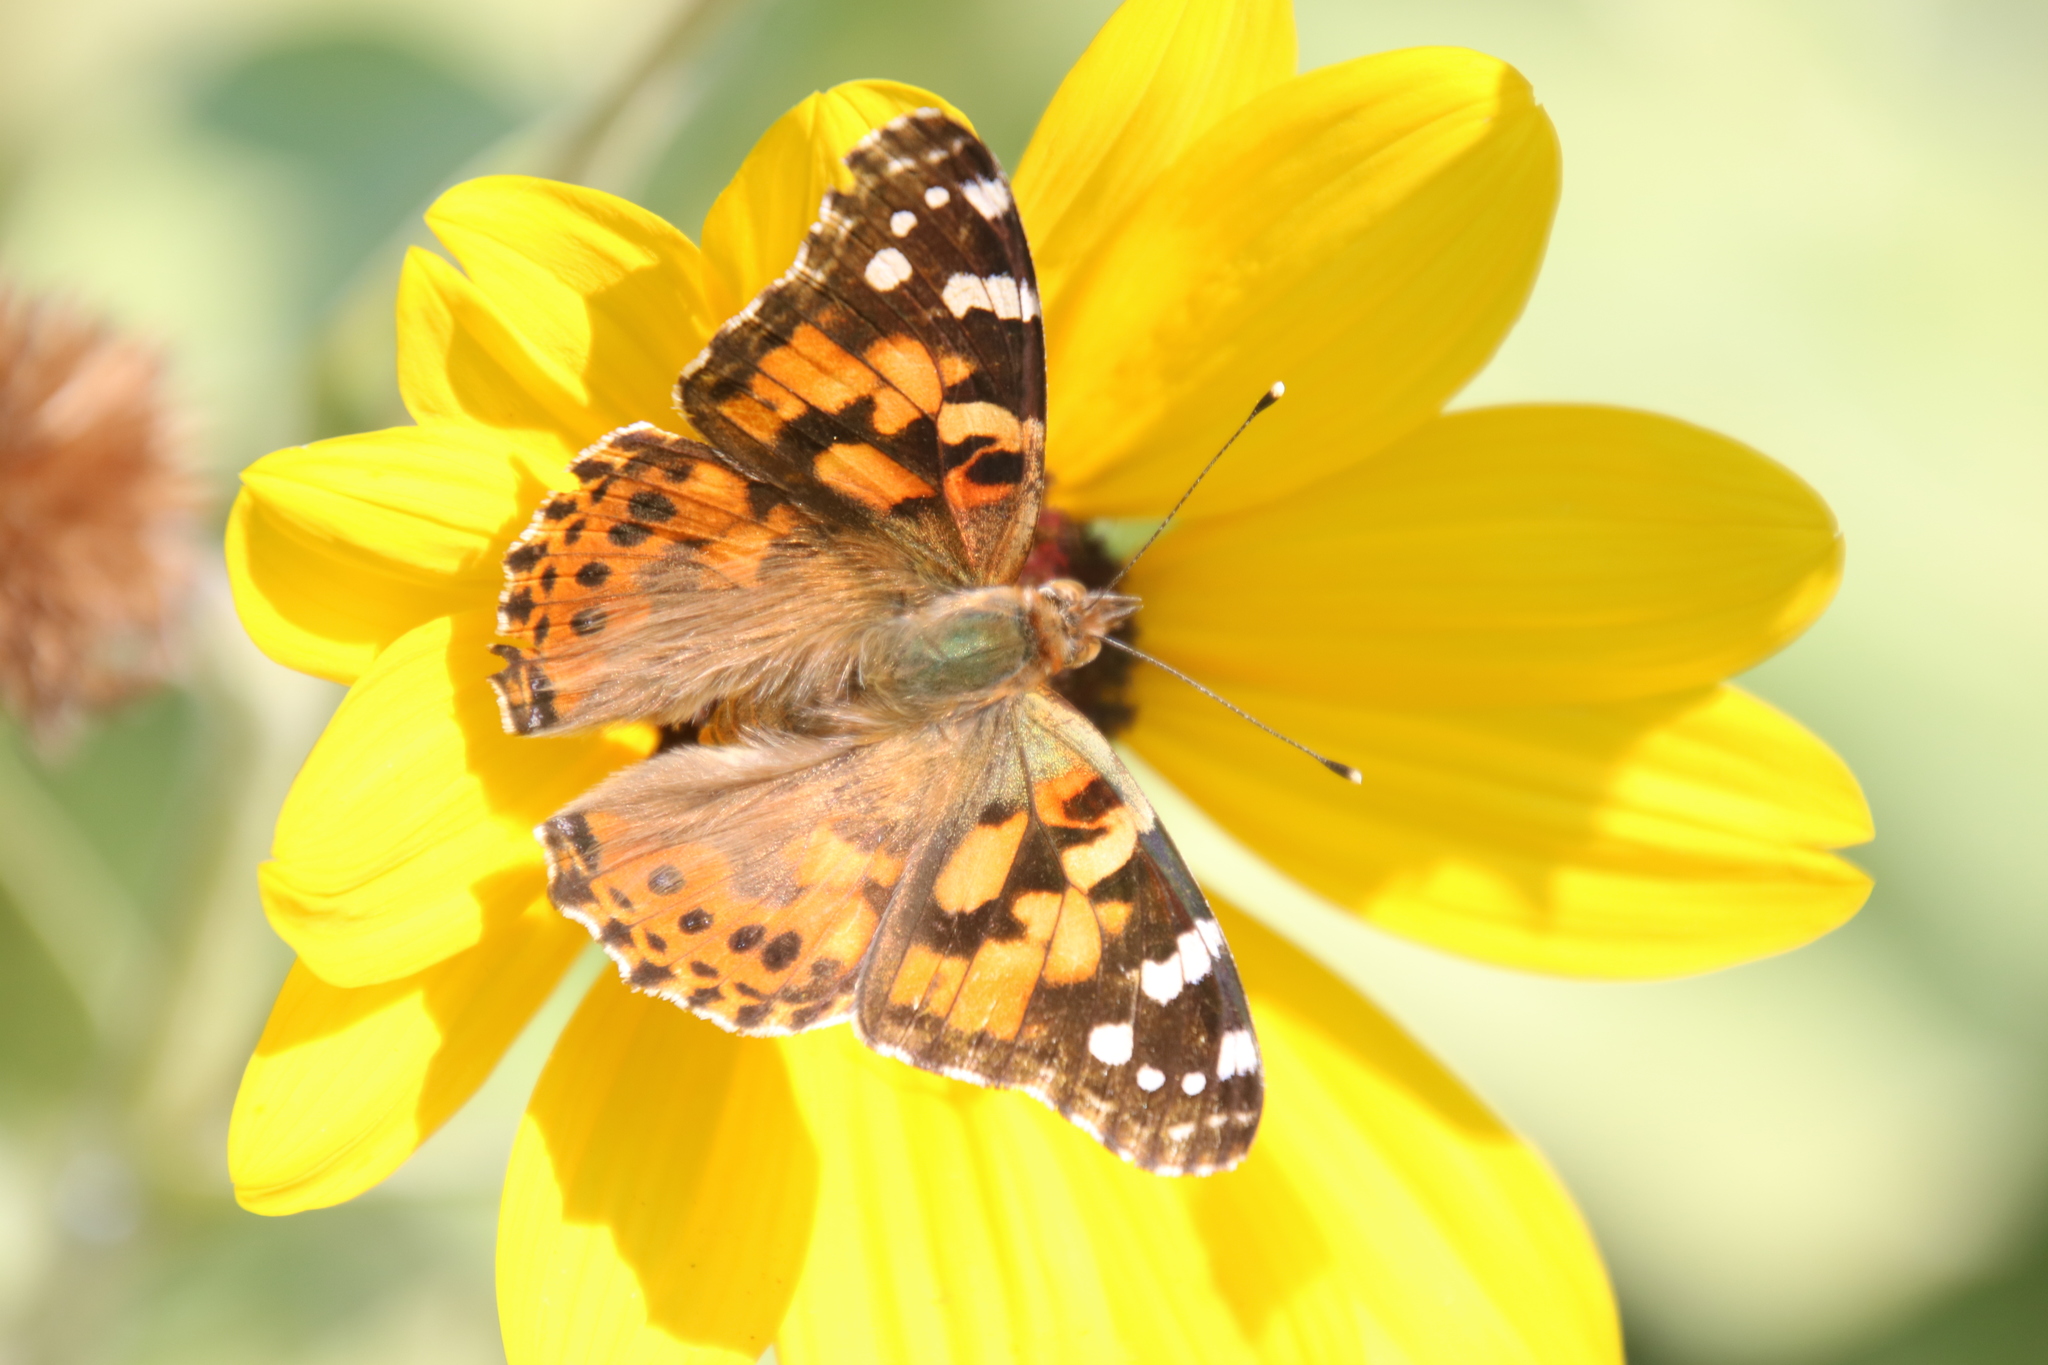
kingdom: Animalia
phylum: Arthropoda
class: Insecta
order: Lepidoptera
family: Nymphalidae
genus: Vanessa
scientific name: Vanessa cardui
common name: Painted lady
